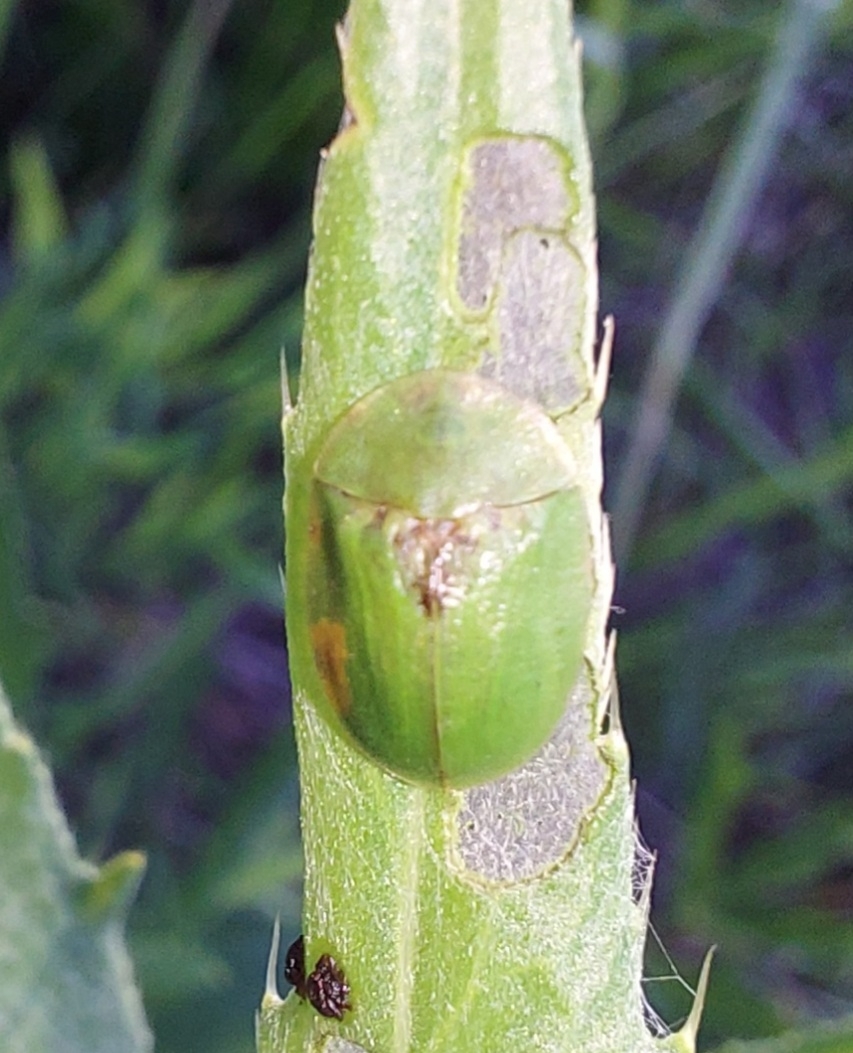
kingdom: Animalia
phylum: Arthropoda
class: Insecta
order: Coleoptera
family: Chrysomelidae
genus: Cassida
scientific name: Cassida rubiginosa
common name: Thistle tortoise beetle
